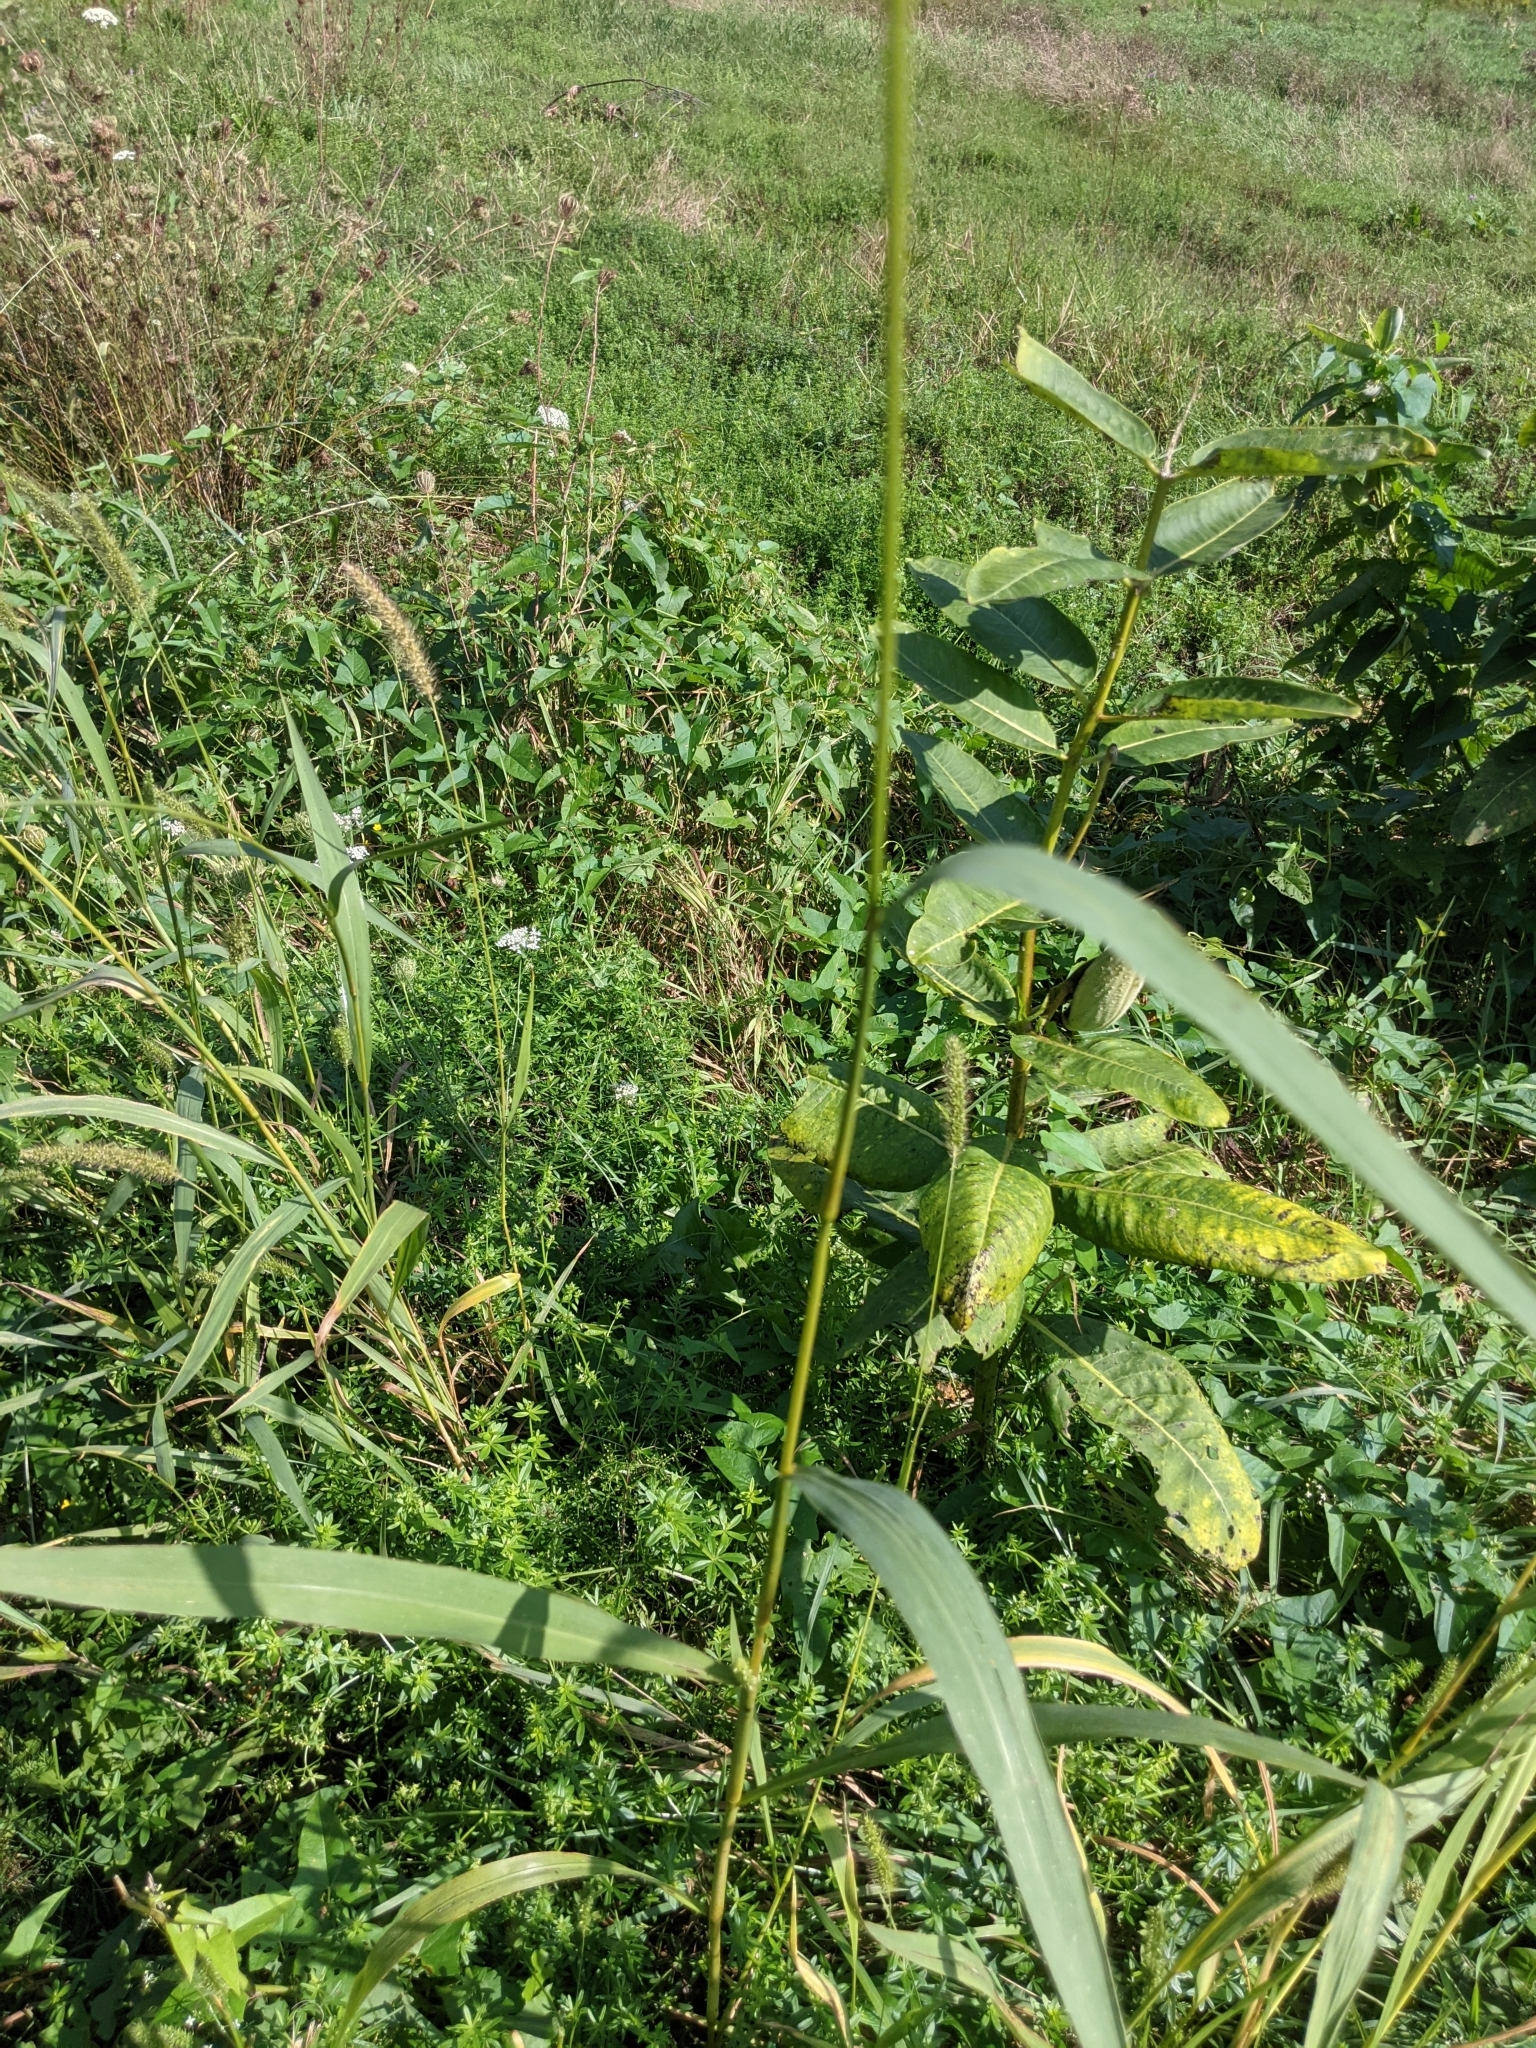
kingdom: Plantae
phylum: Tracheophyta
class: Liliopsida
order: Poales
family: Poaceae
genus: Setaria
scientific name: Setaria faberi
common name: Nodding bristle-grass
